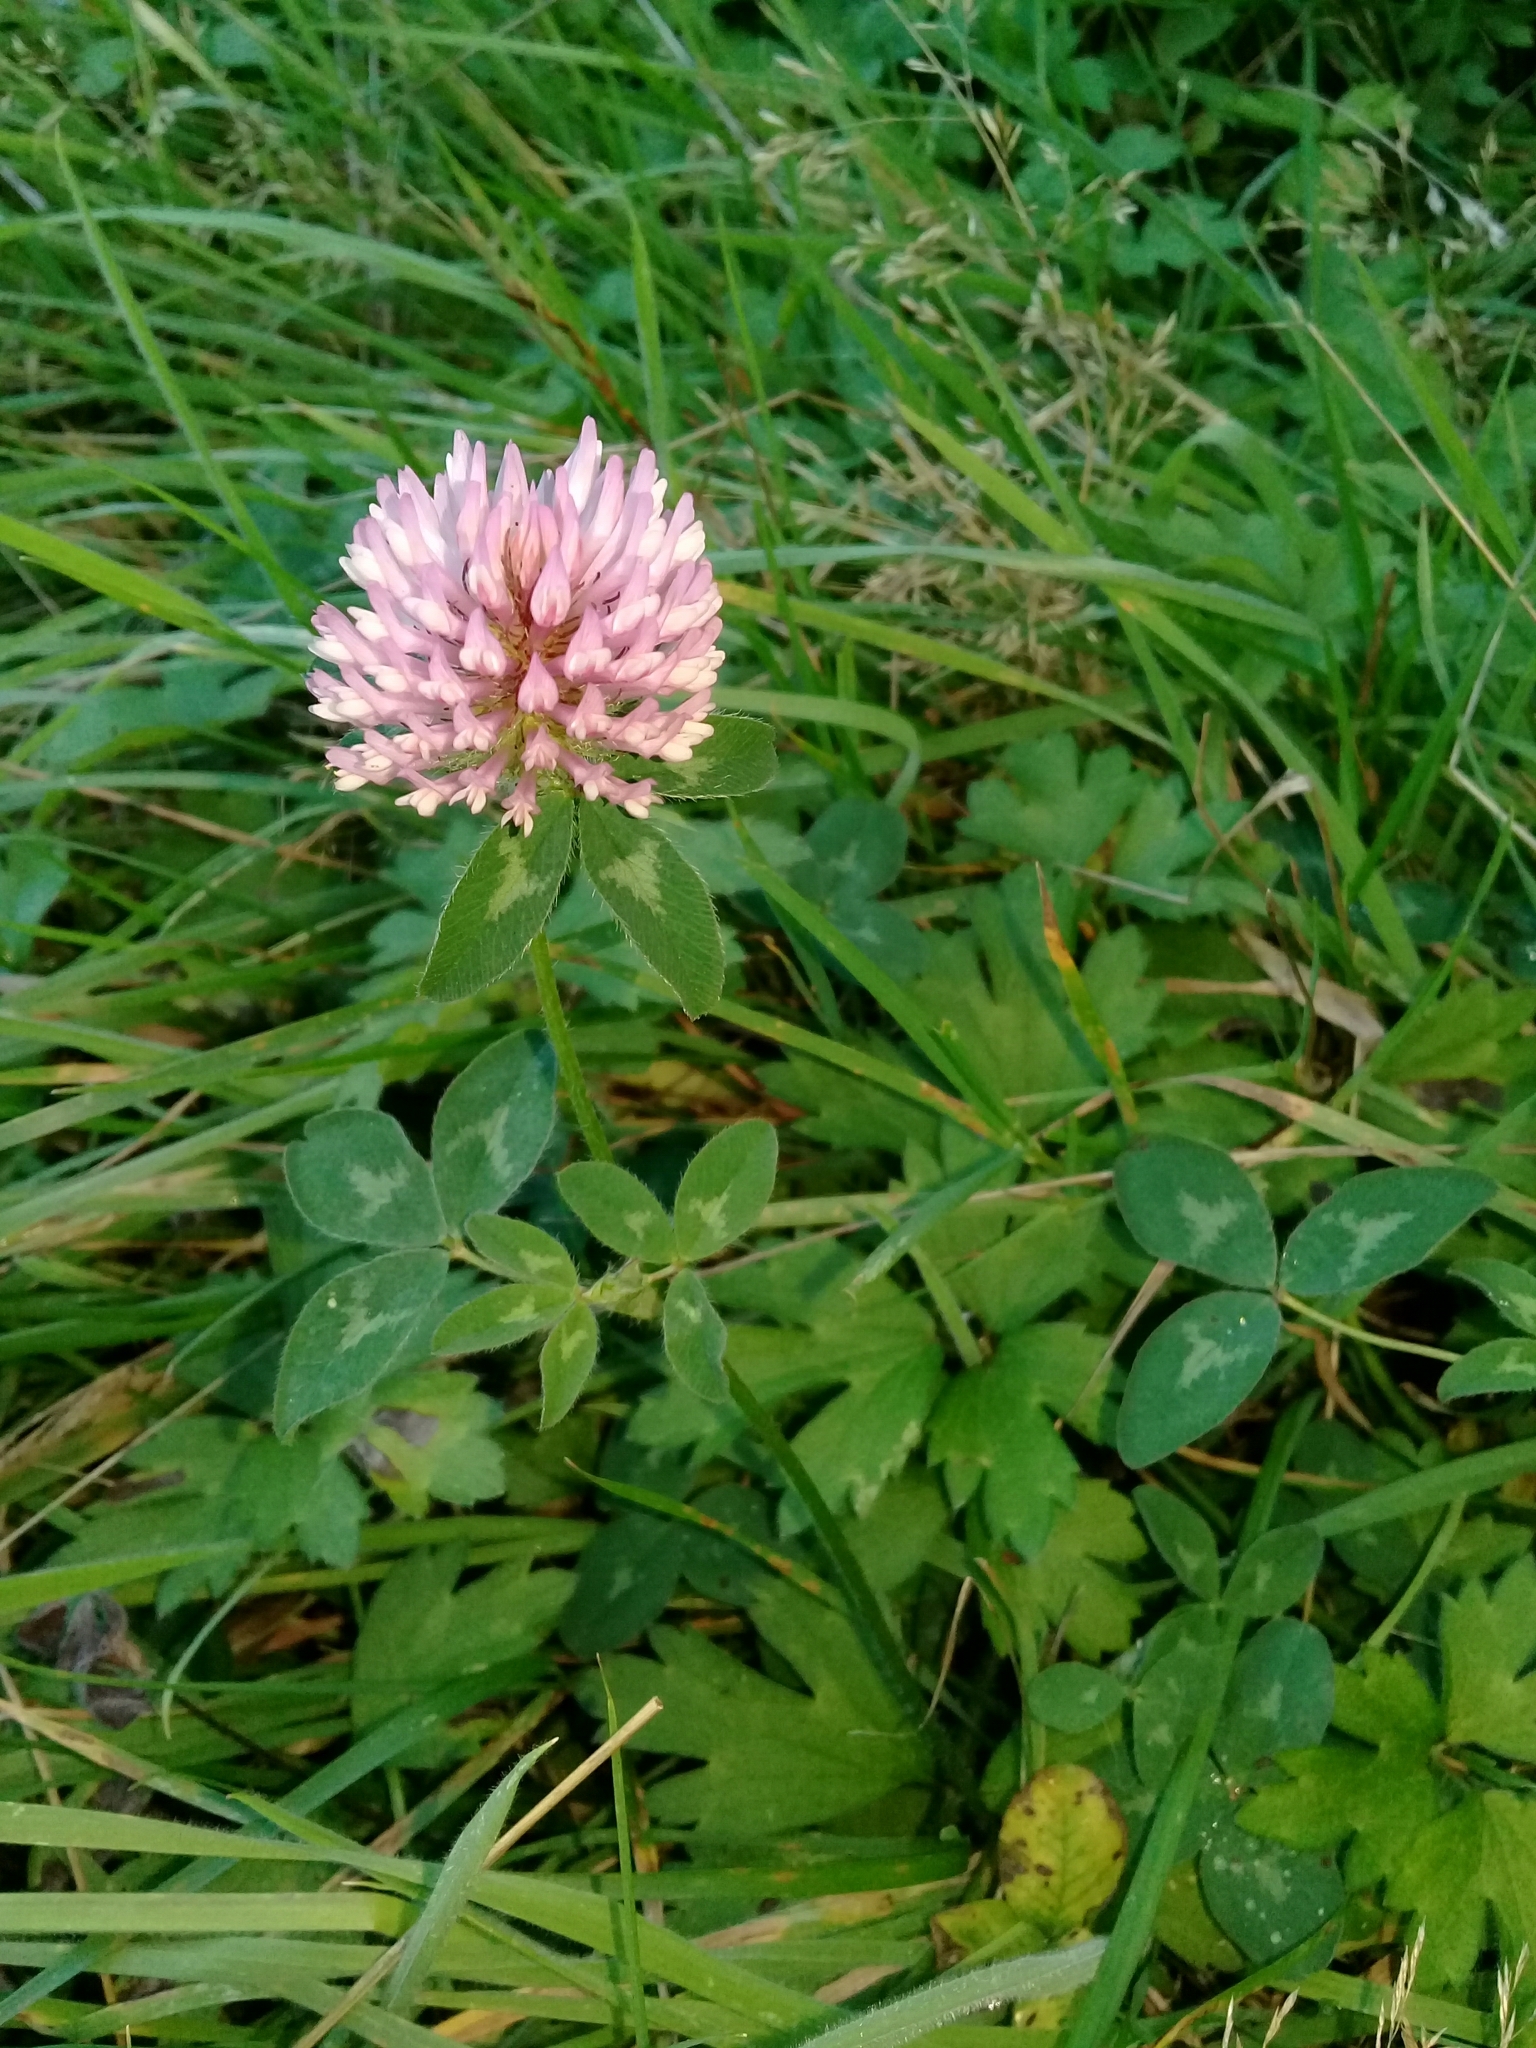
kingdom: Plantae
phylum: Tracheophyta
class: Magnoliopsida
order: Fabales
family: Fabaceae
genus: Trifolium
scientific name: Trifolium pratense
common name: Red clover
